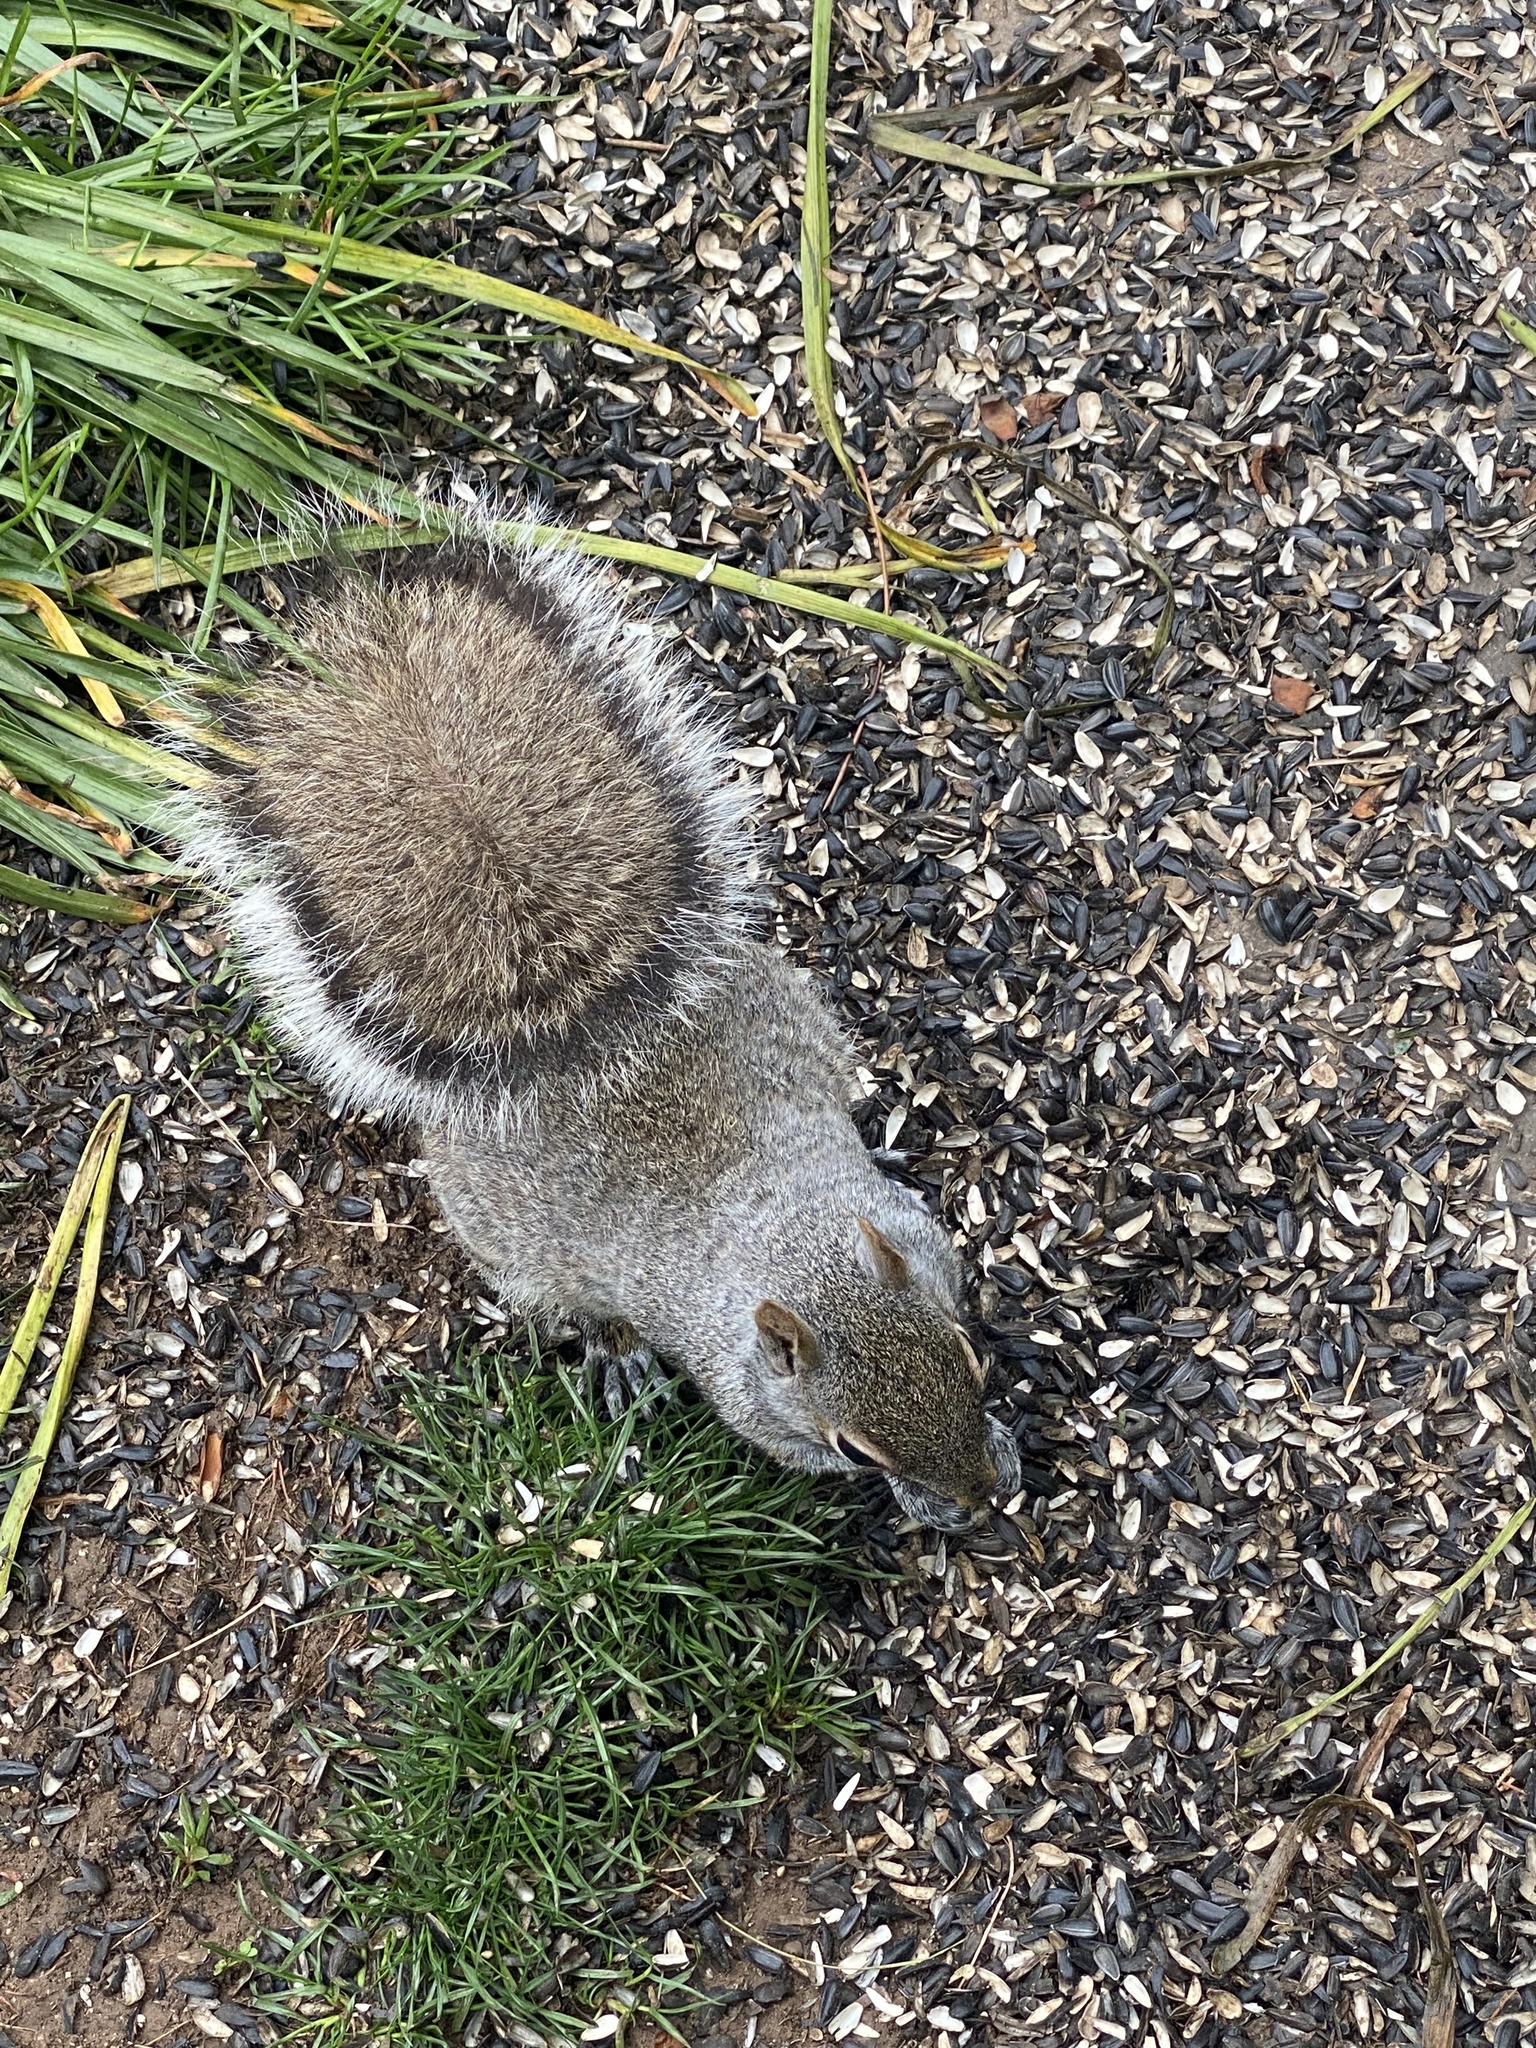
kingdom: Animalia
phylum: Chordata
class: Mammalia
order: Rodentia
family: Sciuridae
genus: Sciurus
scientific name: Sciurus carolinensis
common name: Eastern gray squirrel
